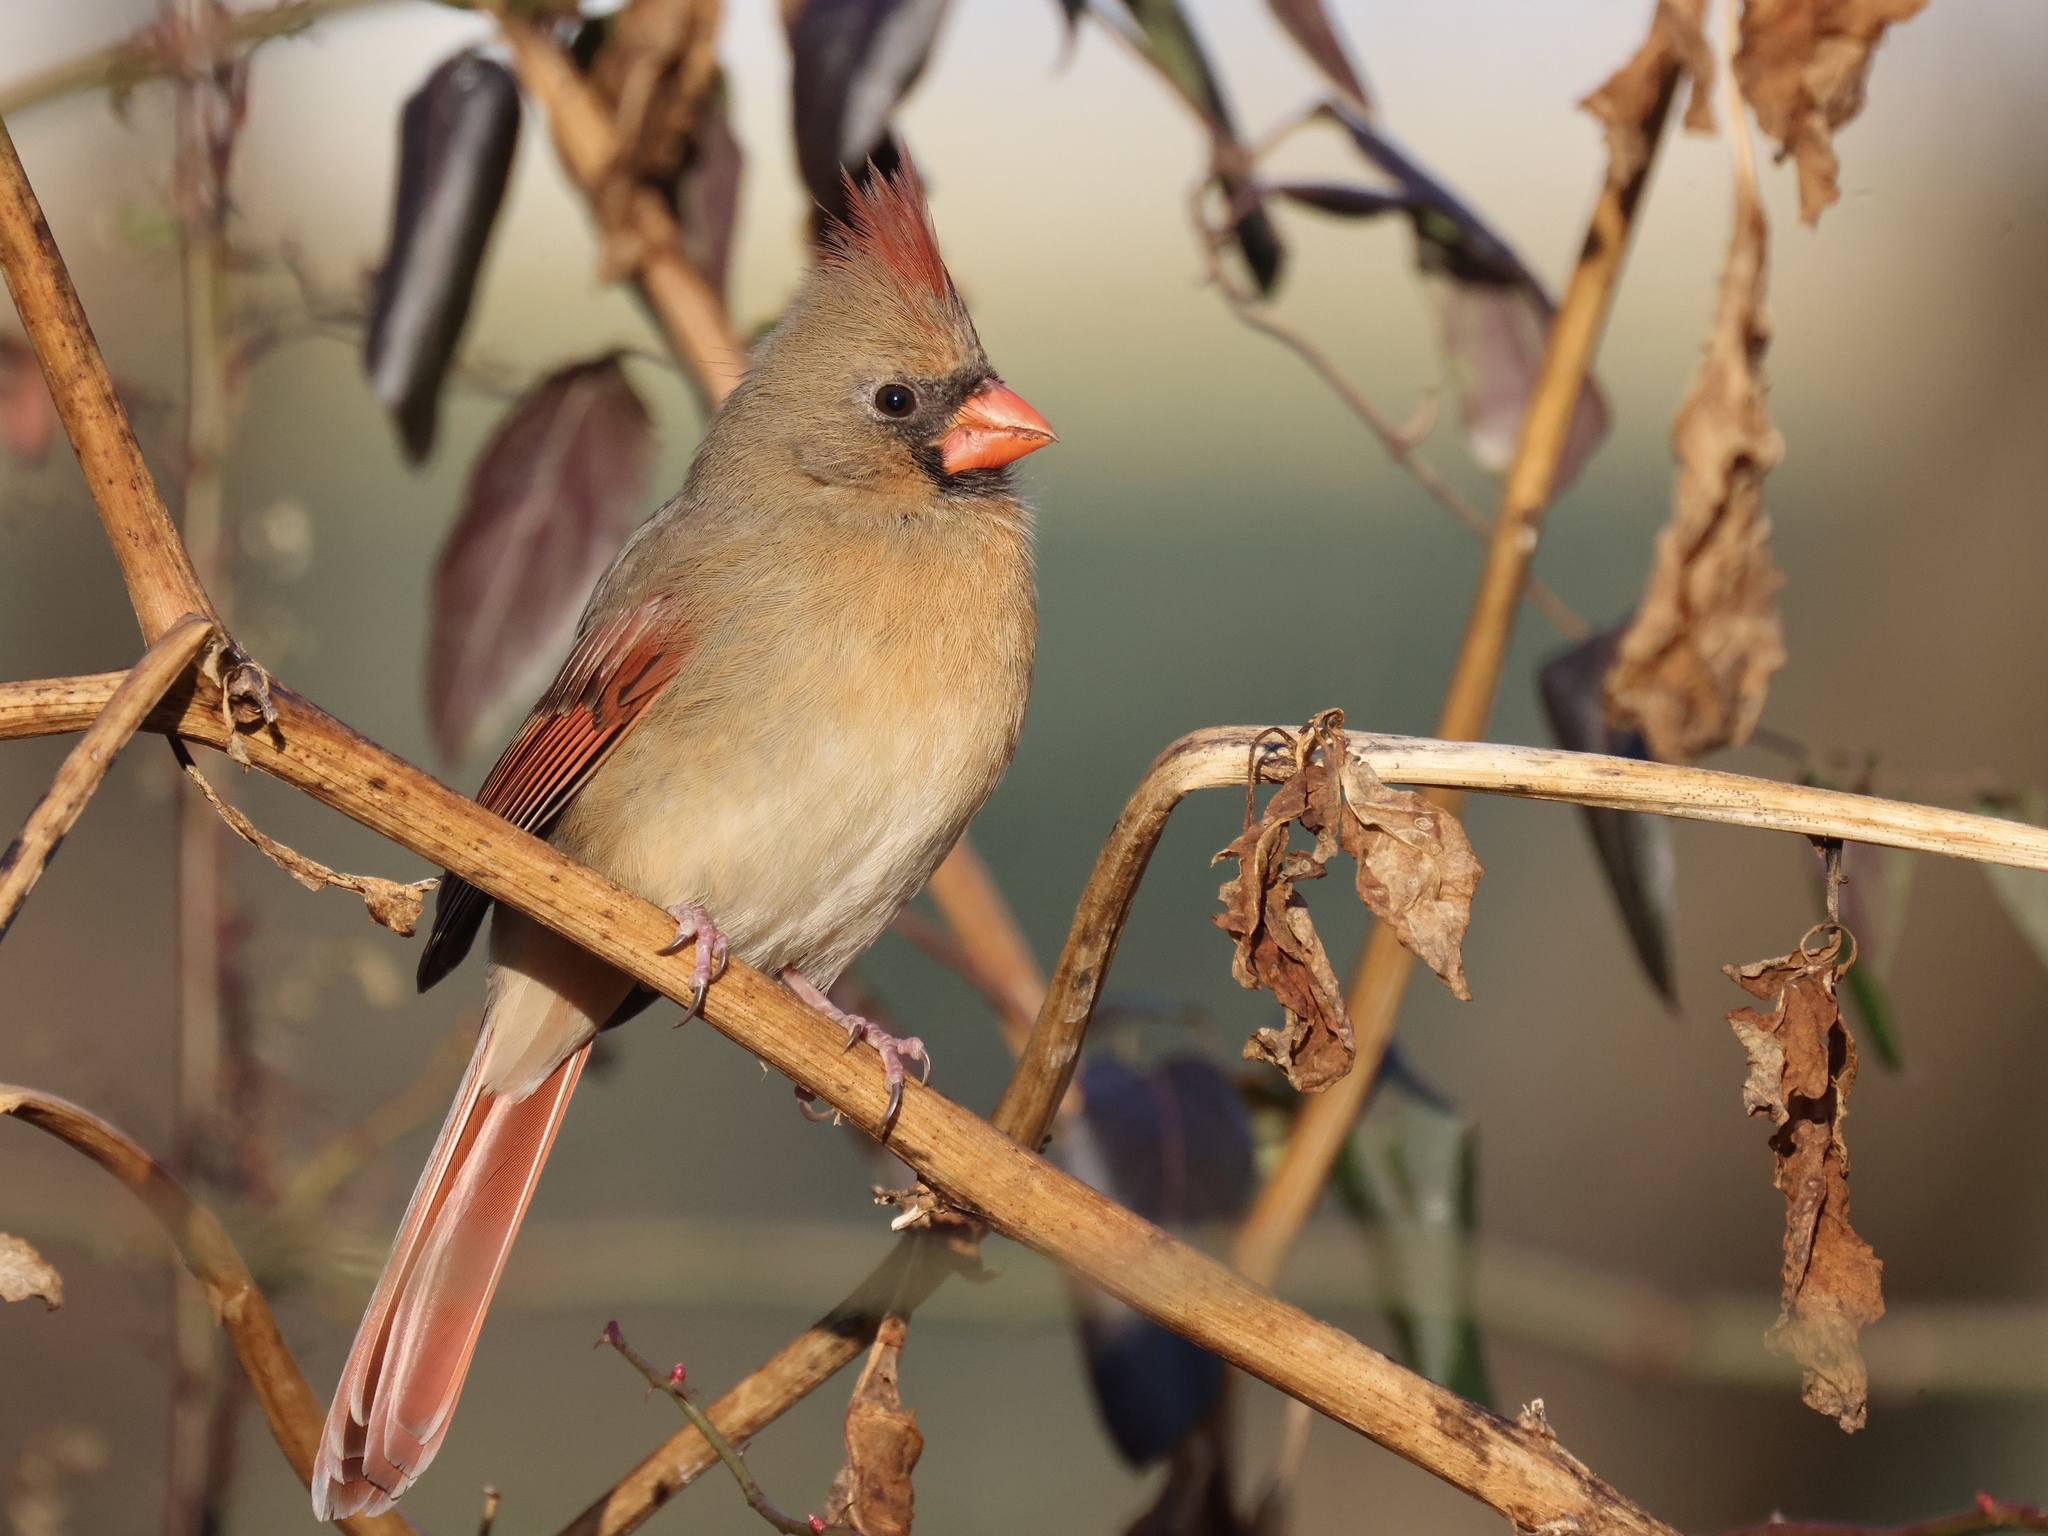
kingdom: Animalia
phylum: Chordata
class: Aves
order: Passeriformes
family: Cardinalidae
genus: Cardinalis
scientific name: Cardinalis cardinalis
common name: Northern cardinal
